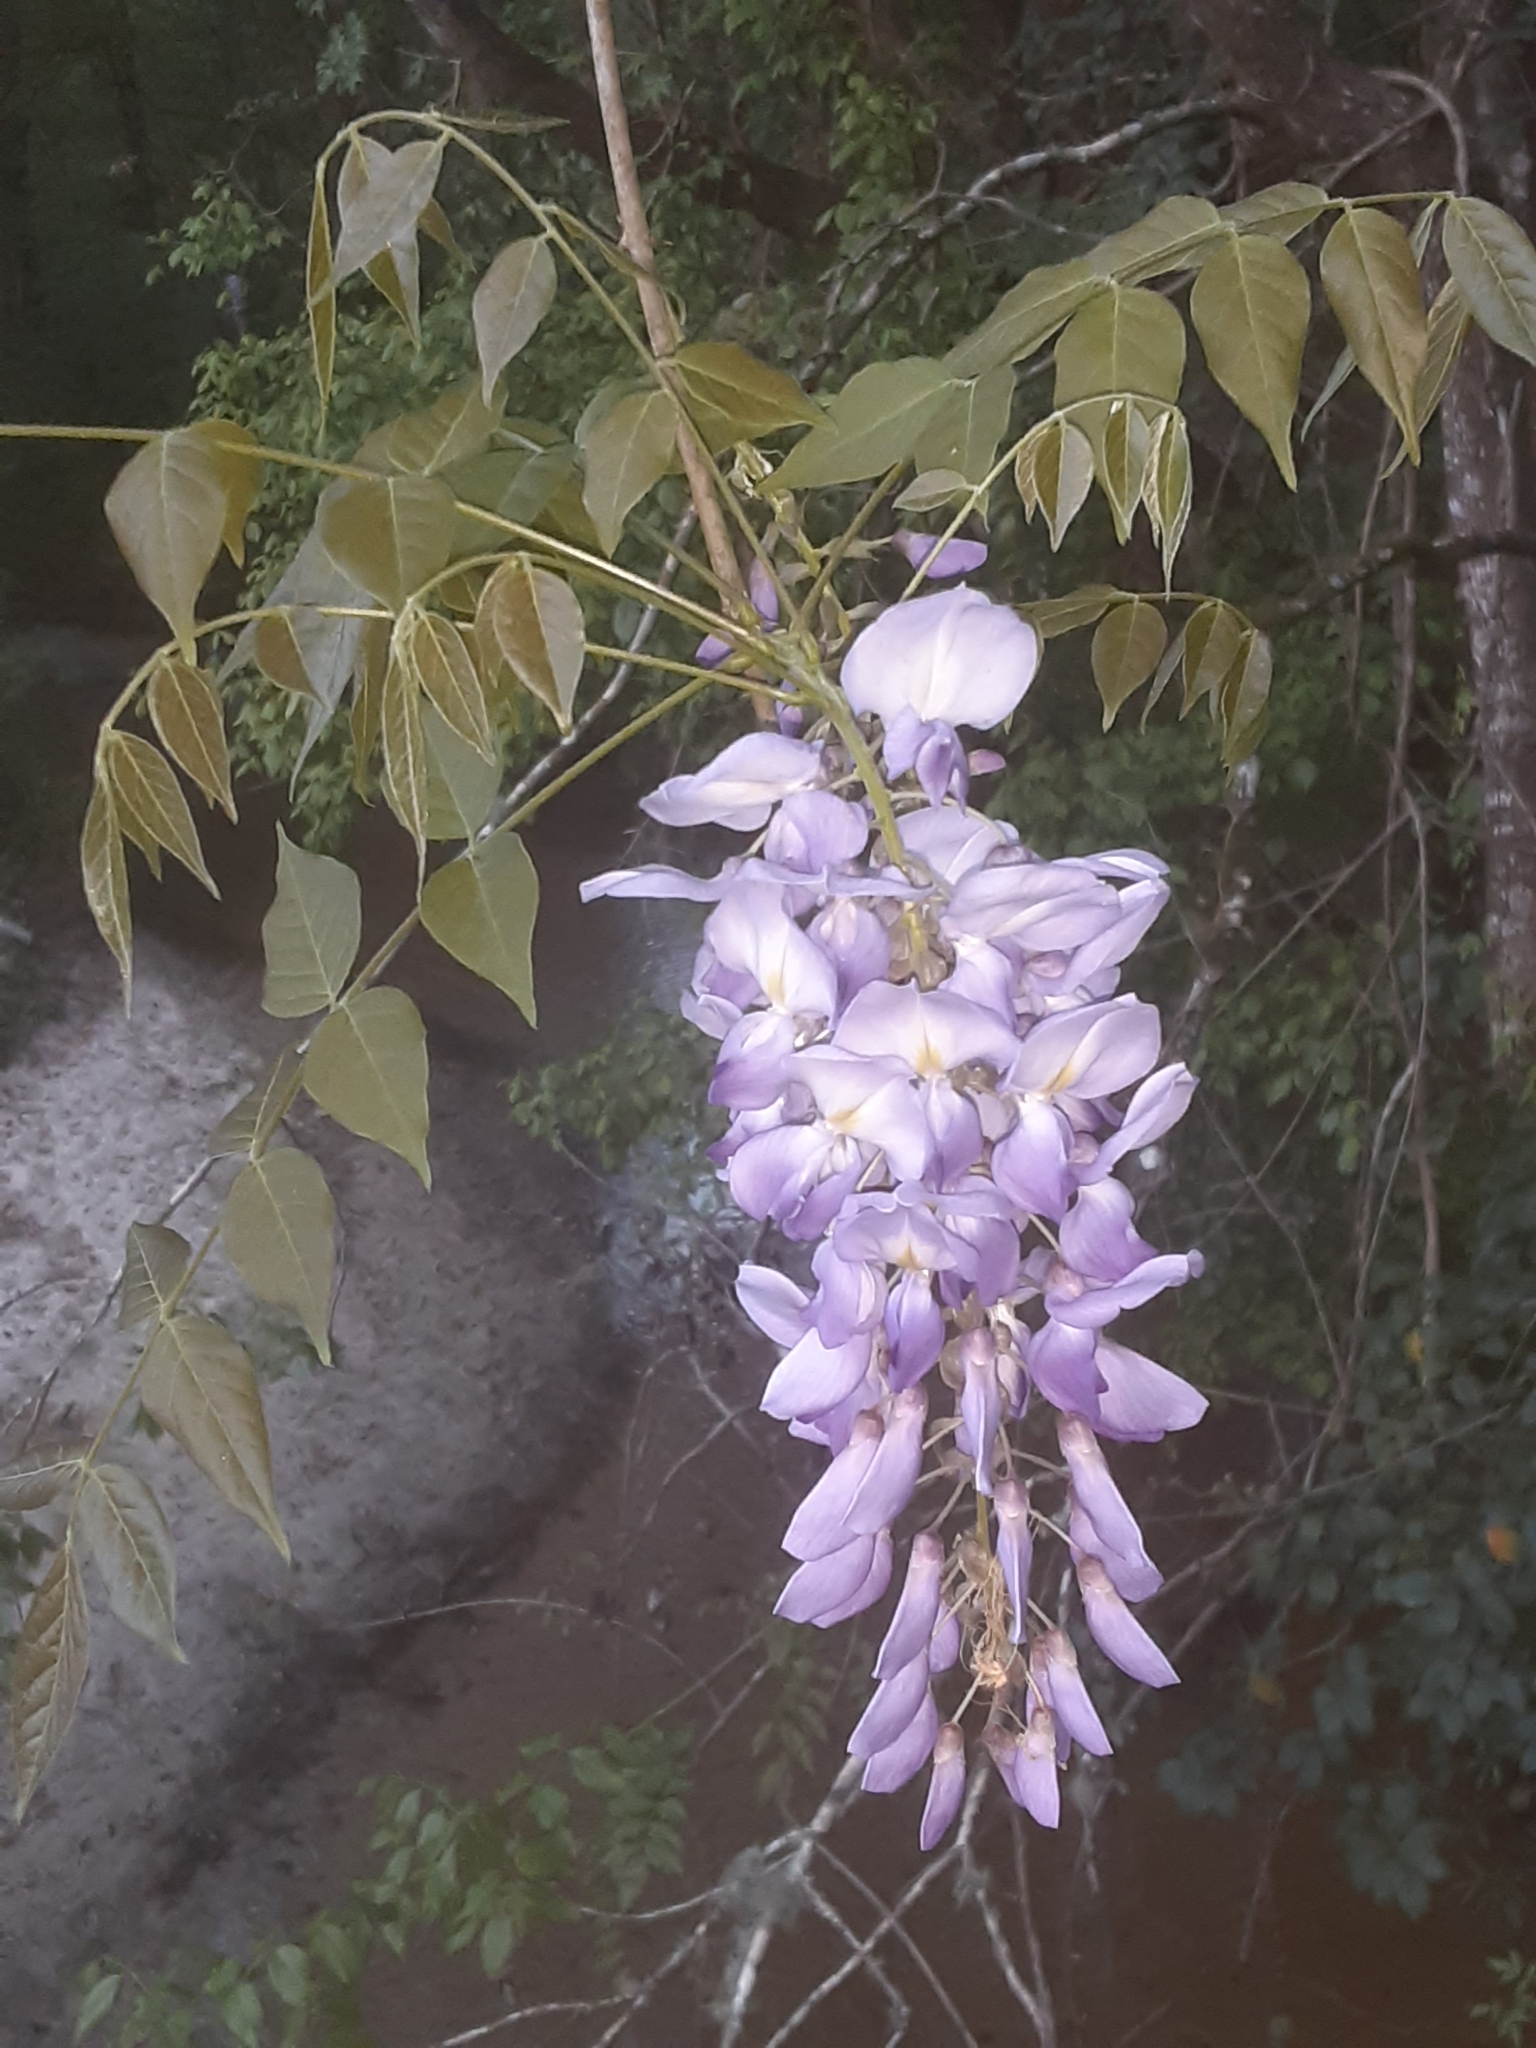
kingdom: Plantae
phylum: Tracheophyta
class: Magnoliopsida
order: Fabales
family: Fabaceae
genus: Wisteria
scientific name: Wisteria sinensis
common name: Chinese wisteria
